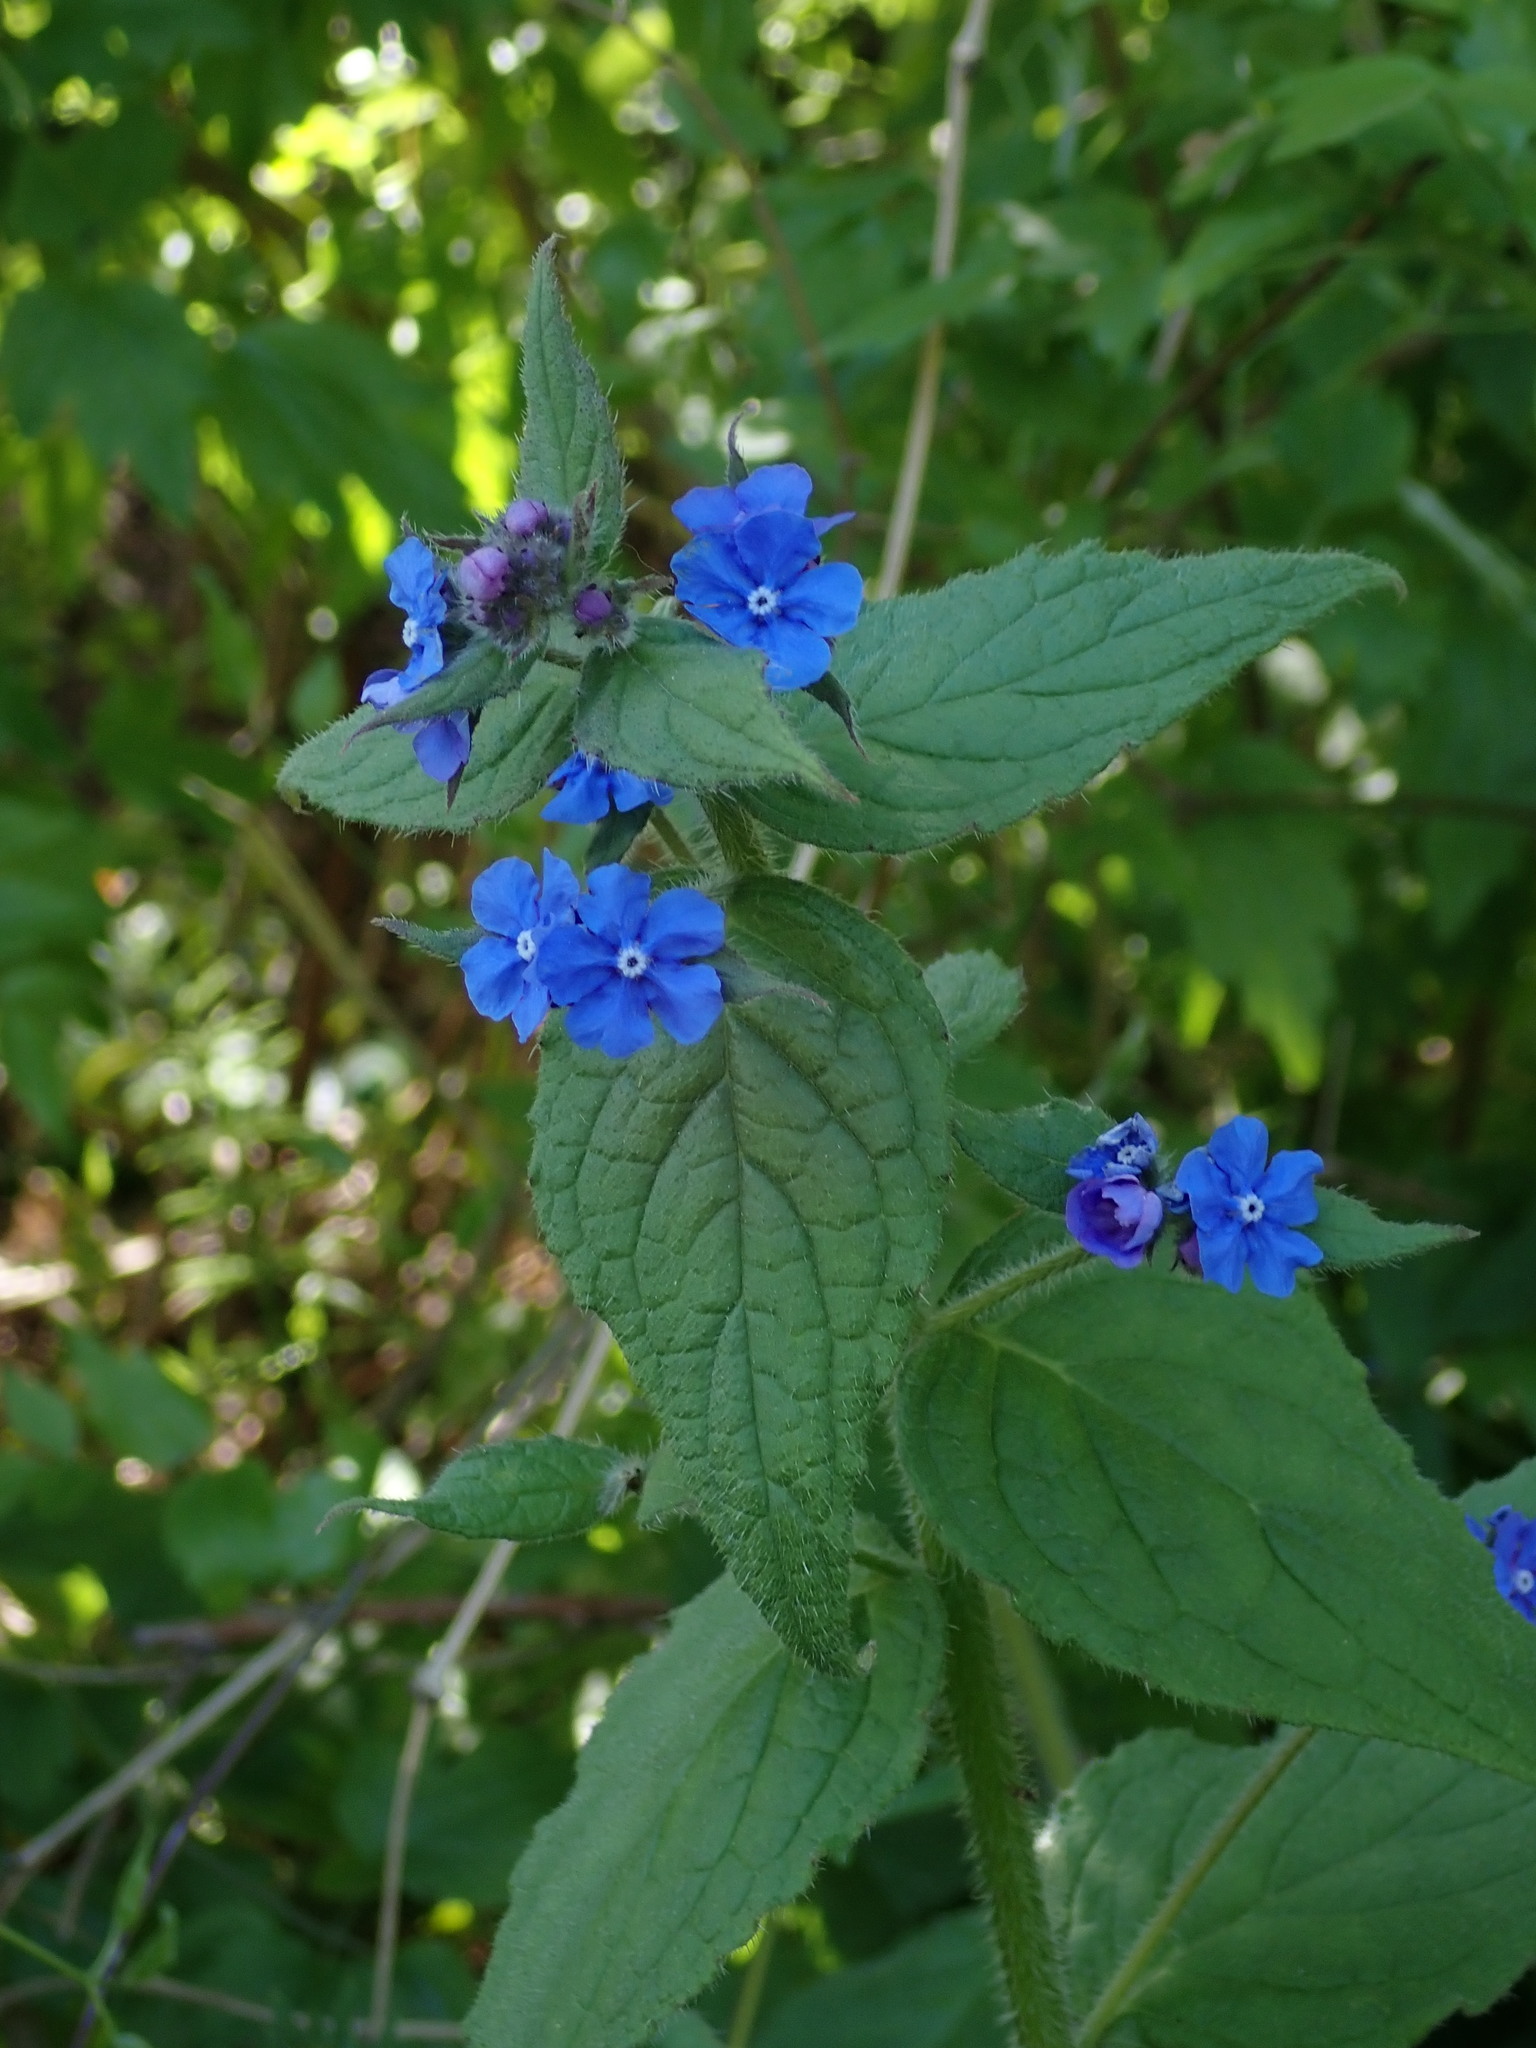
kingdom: Plantae
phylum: Tracheophyta
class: Magnoliopsida
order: Boraginales
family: Boraginaceae
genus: Pentaglottis
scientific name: Pentaglottis sempervirens
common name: Green alkanet
